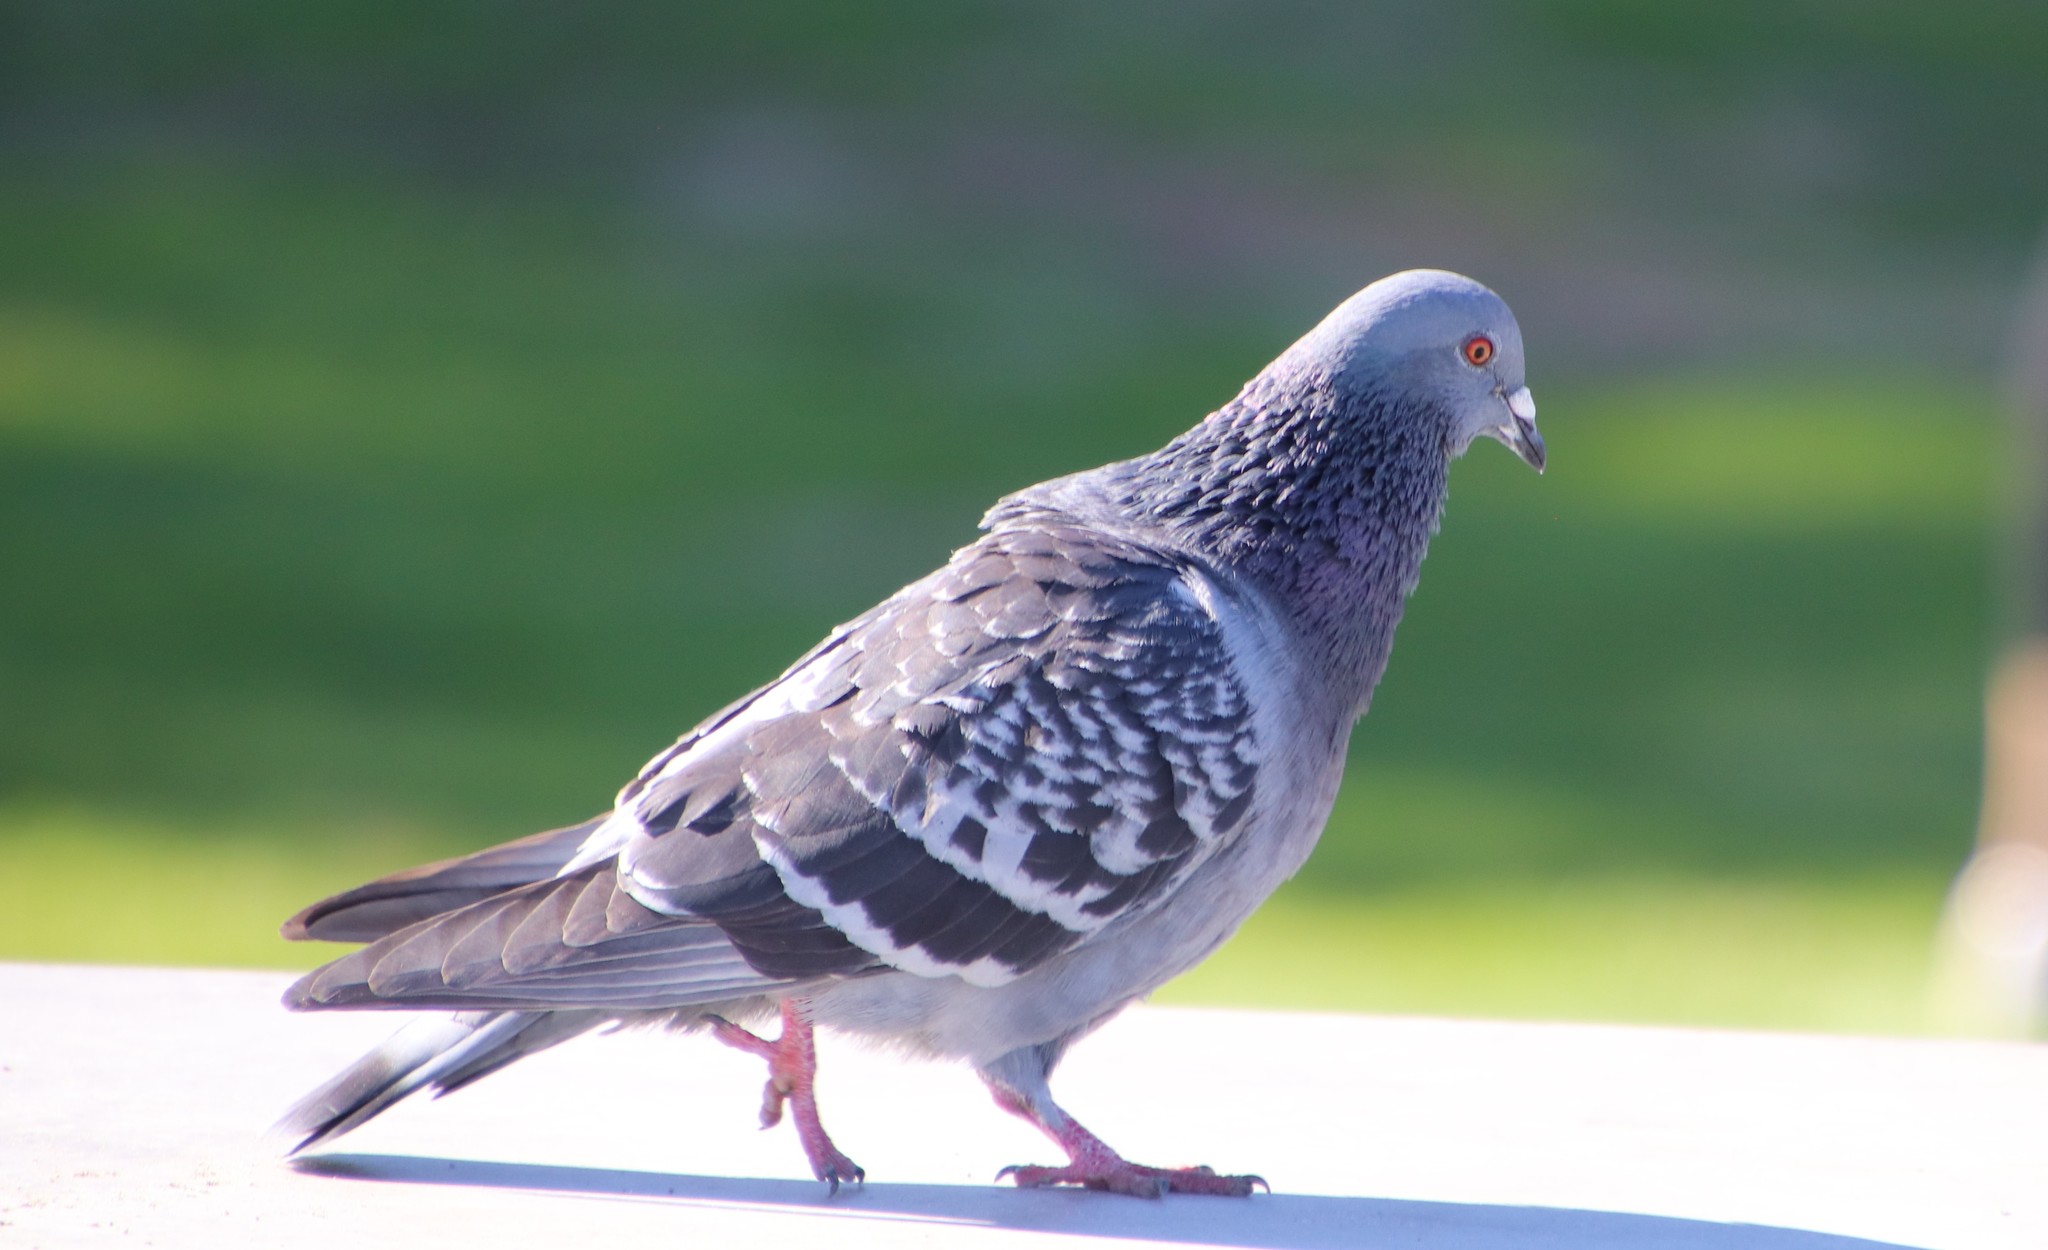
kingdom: Animalia
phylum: Chordata
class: Aves
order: Columbiformes
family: Columbidae
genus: Columba
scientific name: Columba livia
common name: Rock pigeon
